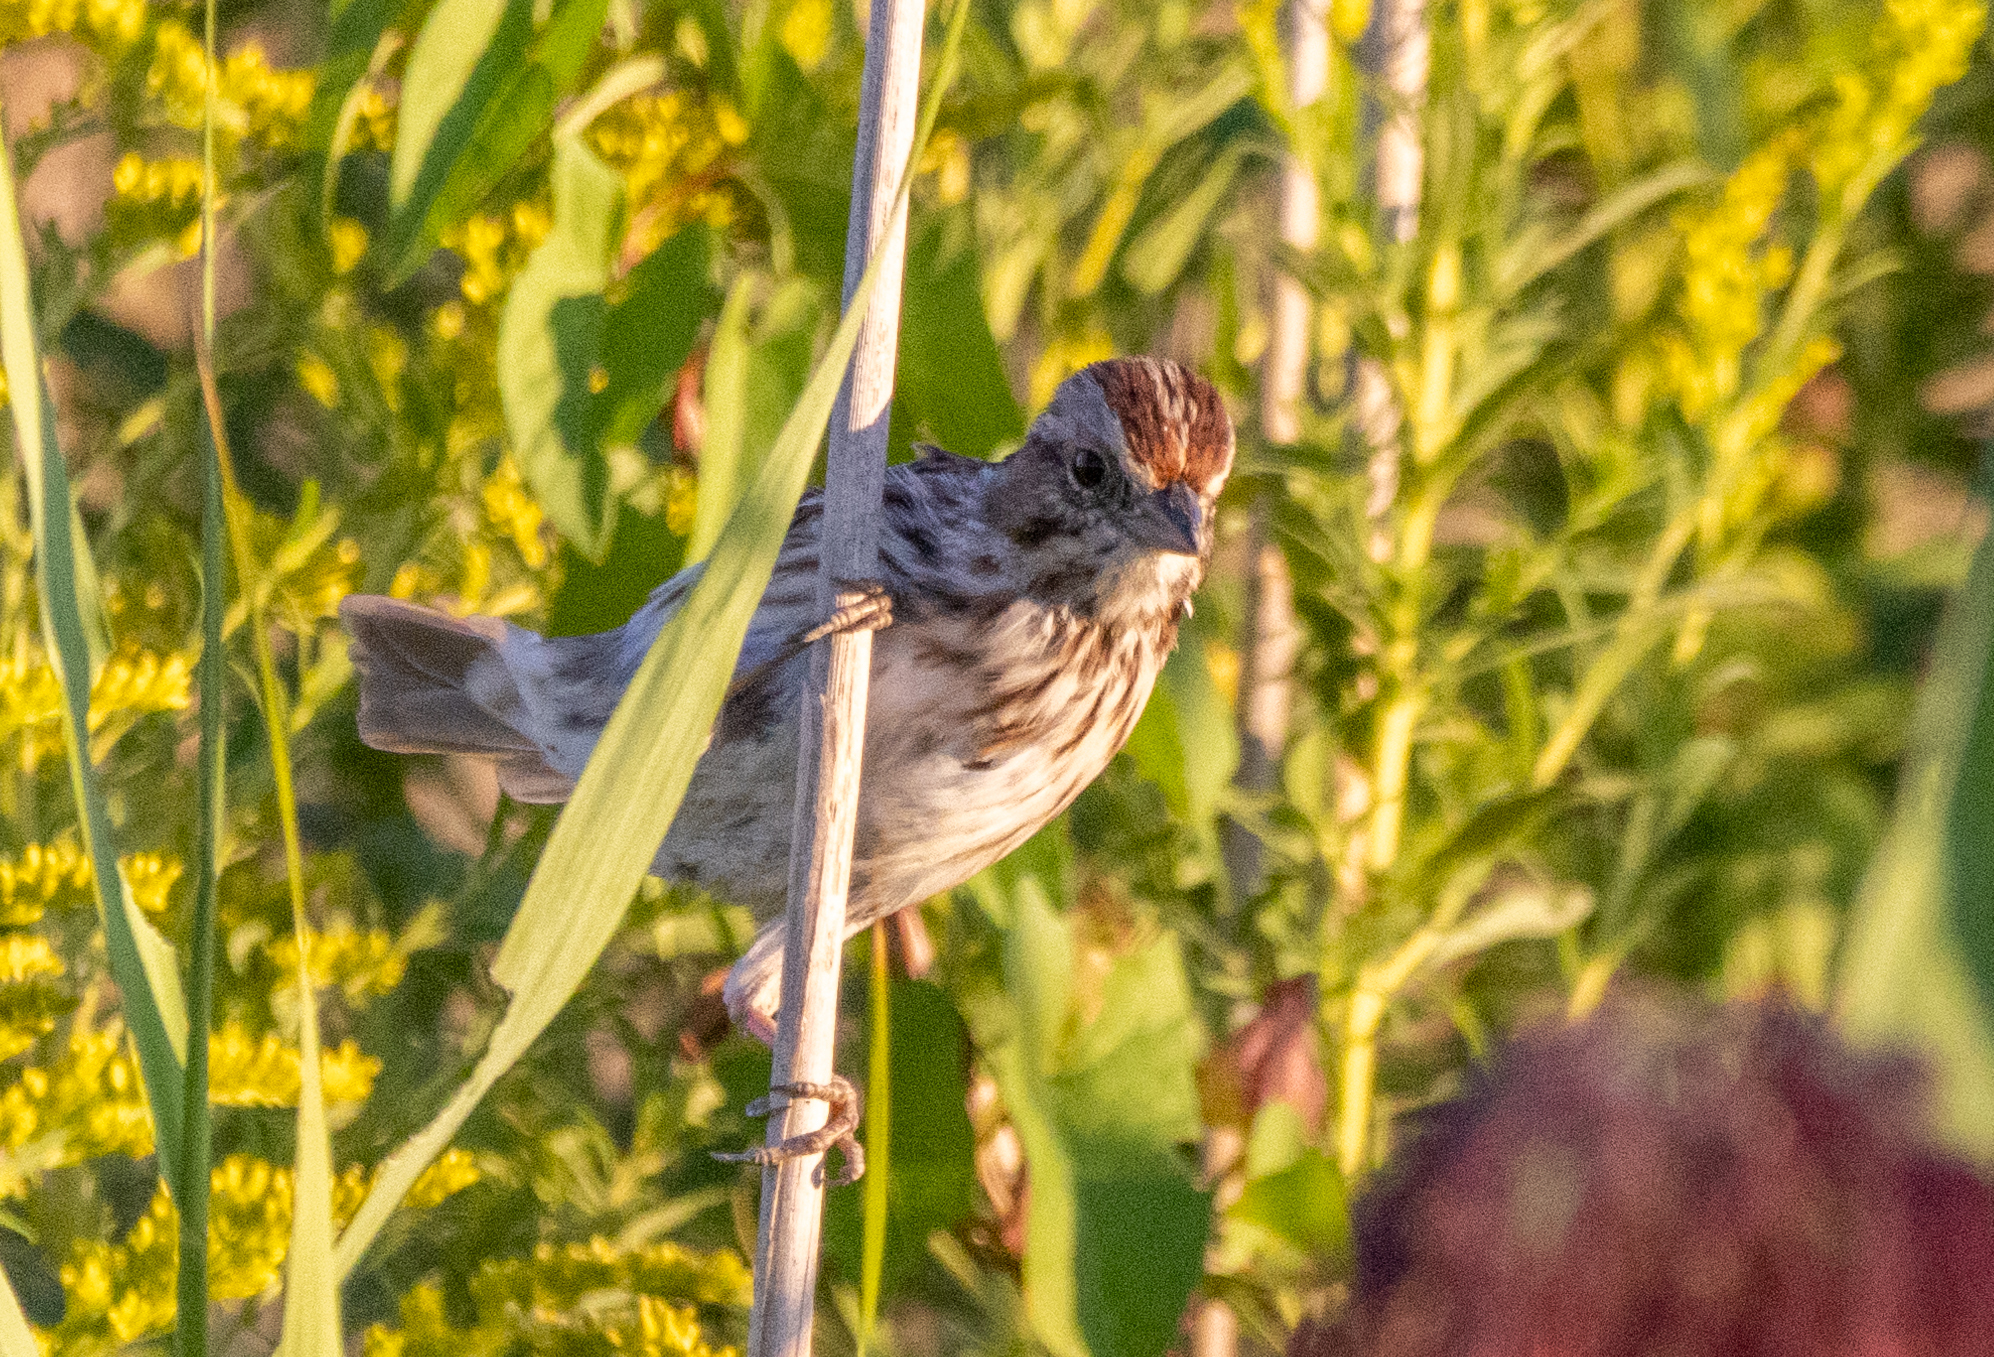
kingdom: Animalia
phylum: Chordata
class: Aves
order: Passeriformes
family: Passerellidae
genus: Melospiza
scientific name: Melospiza melodia
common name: Song sparrow
